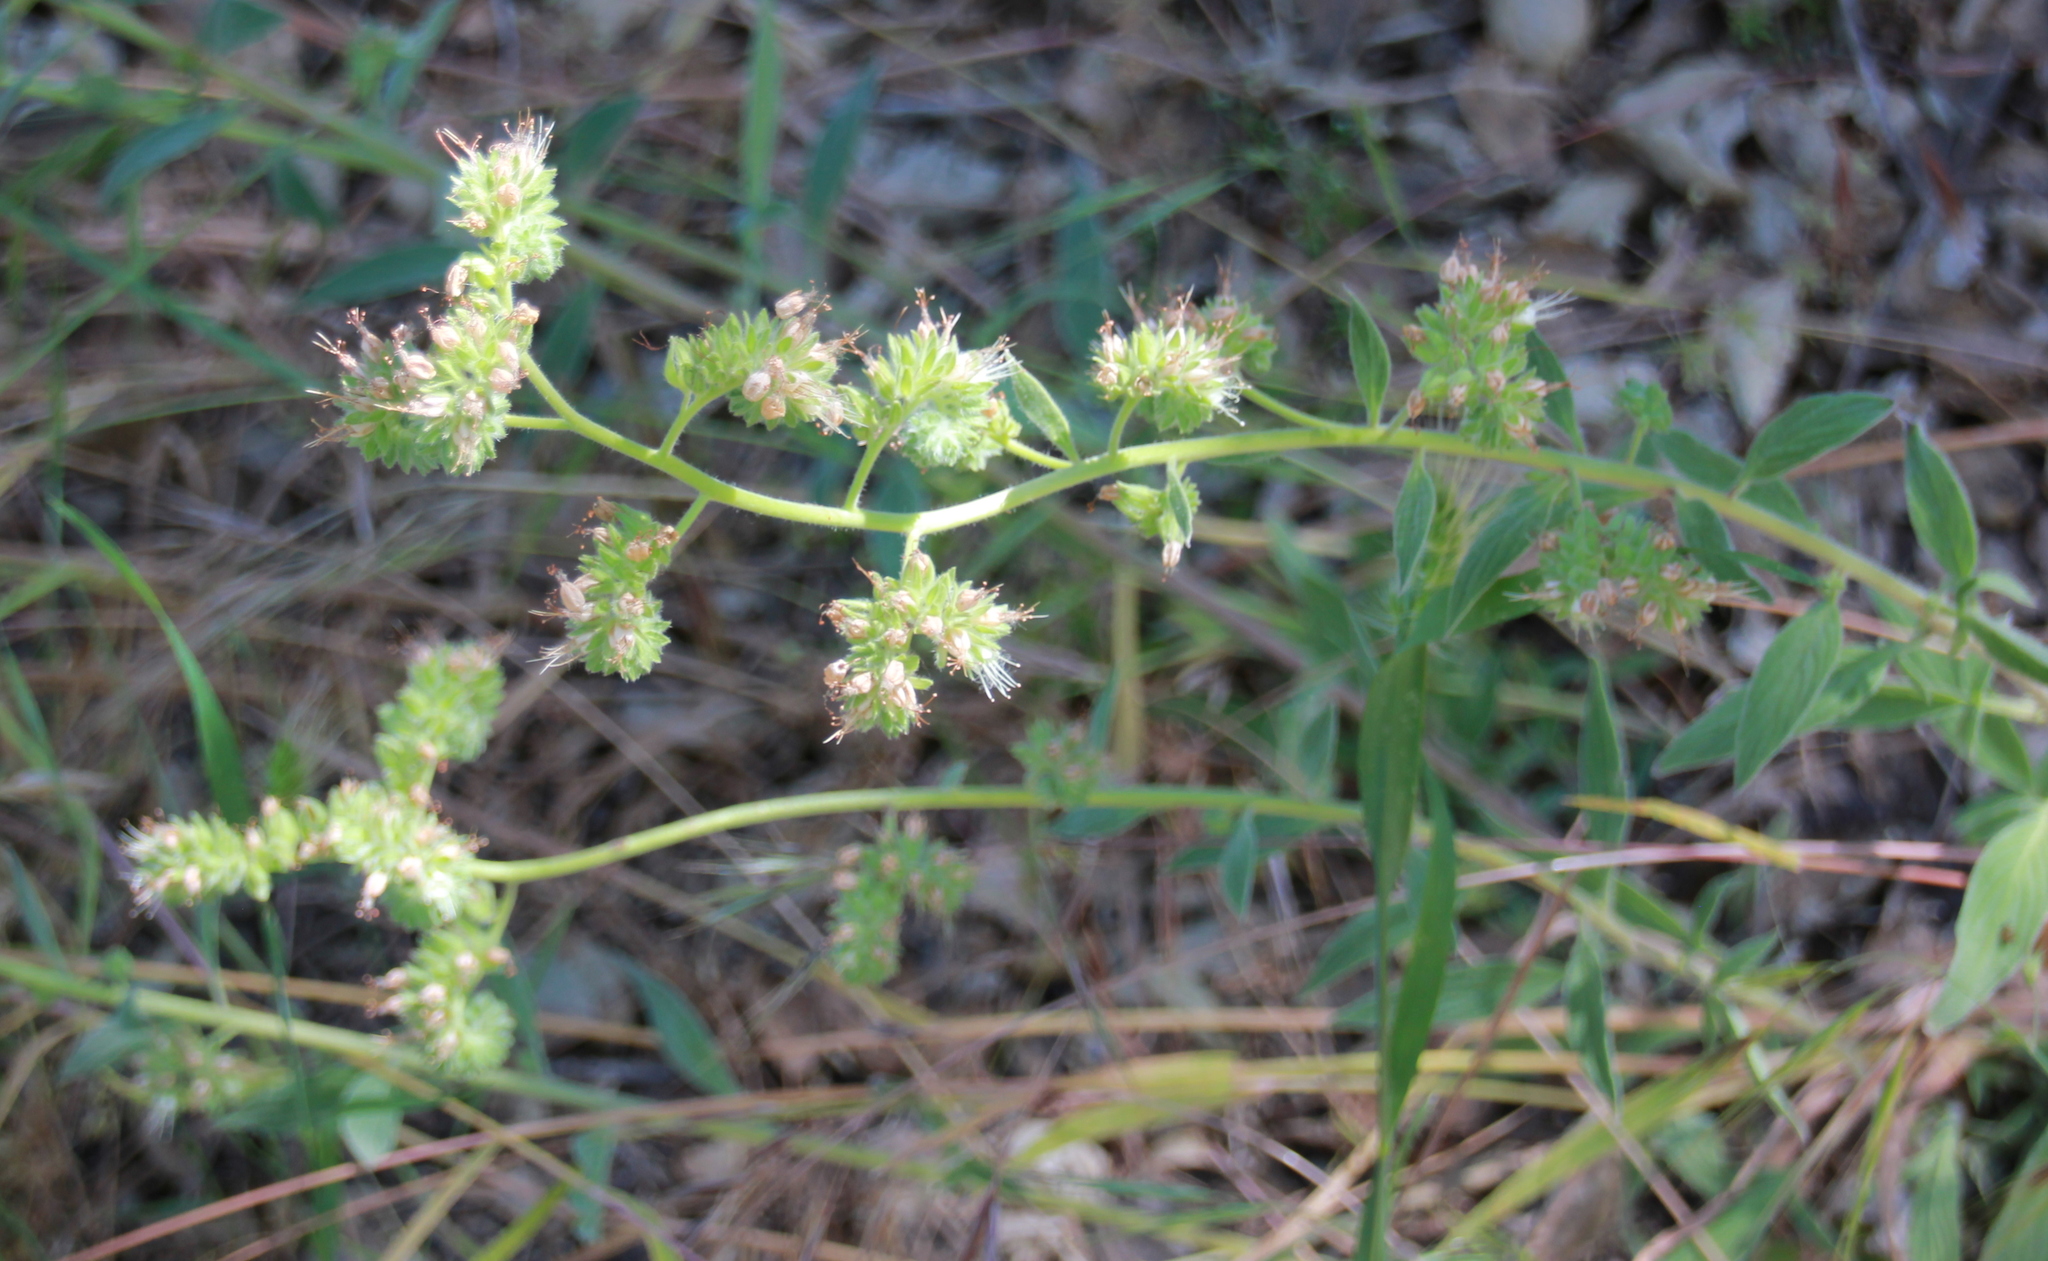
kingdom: Plantae
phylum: Tracheophyta
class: Magnoliopsida
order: Boraginales
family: Hydrophyllaceae
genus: Phacelia
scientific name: Phacelia imbricata
